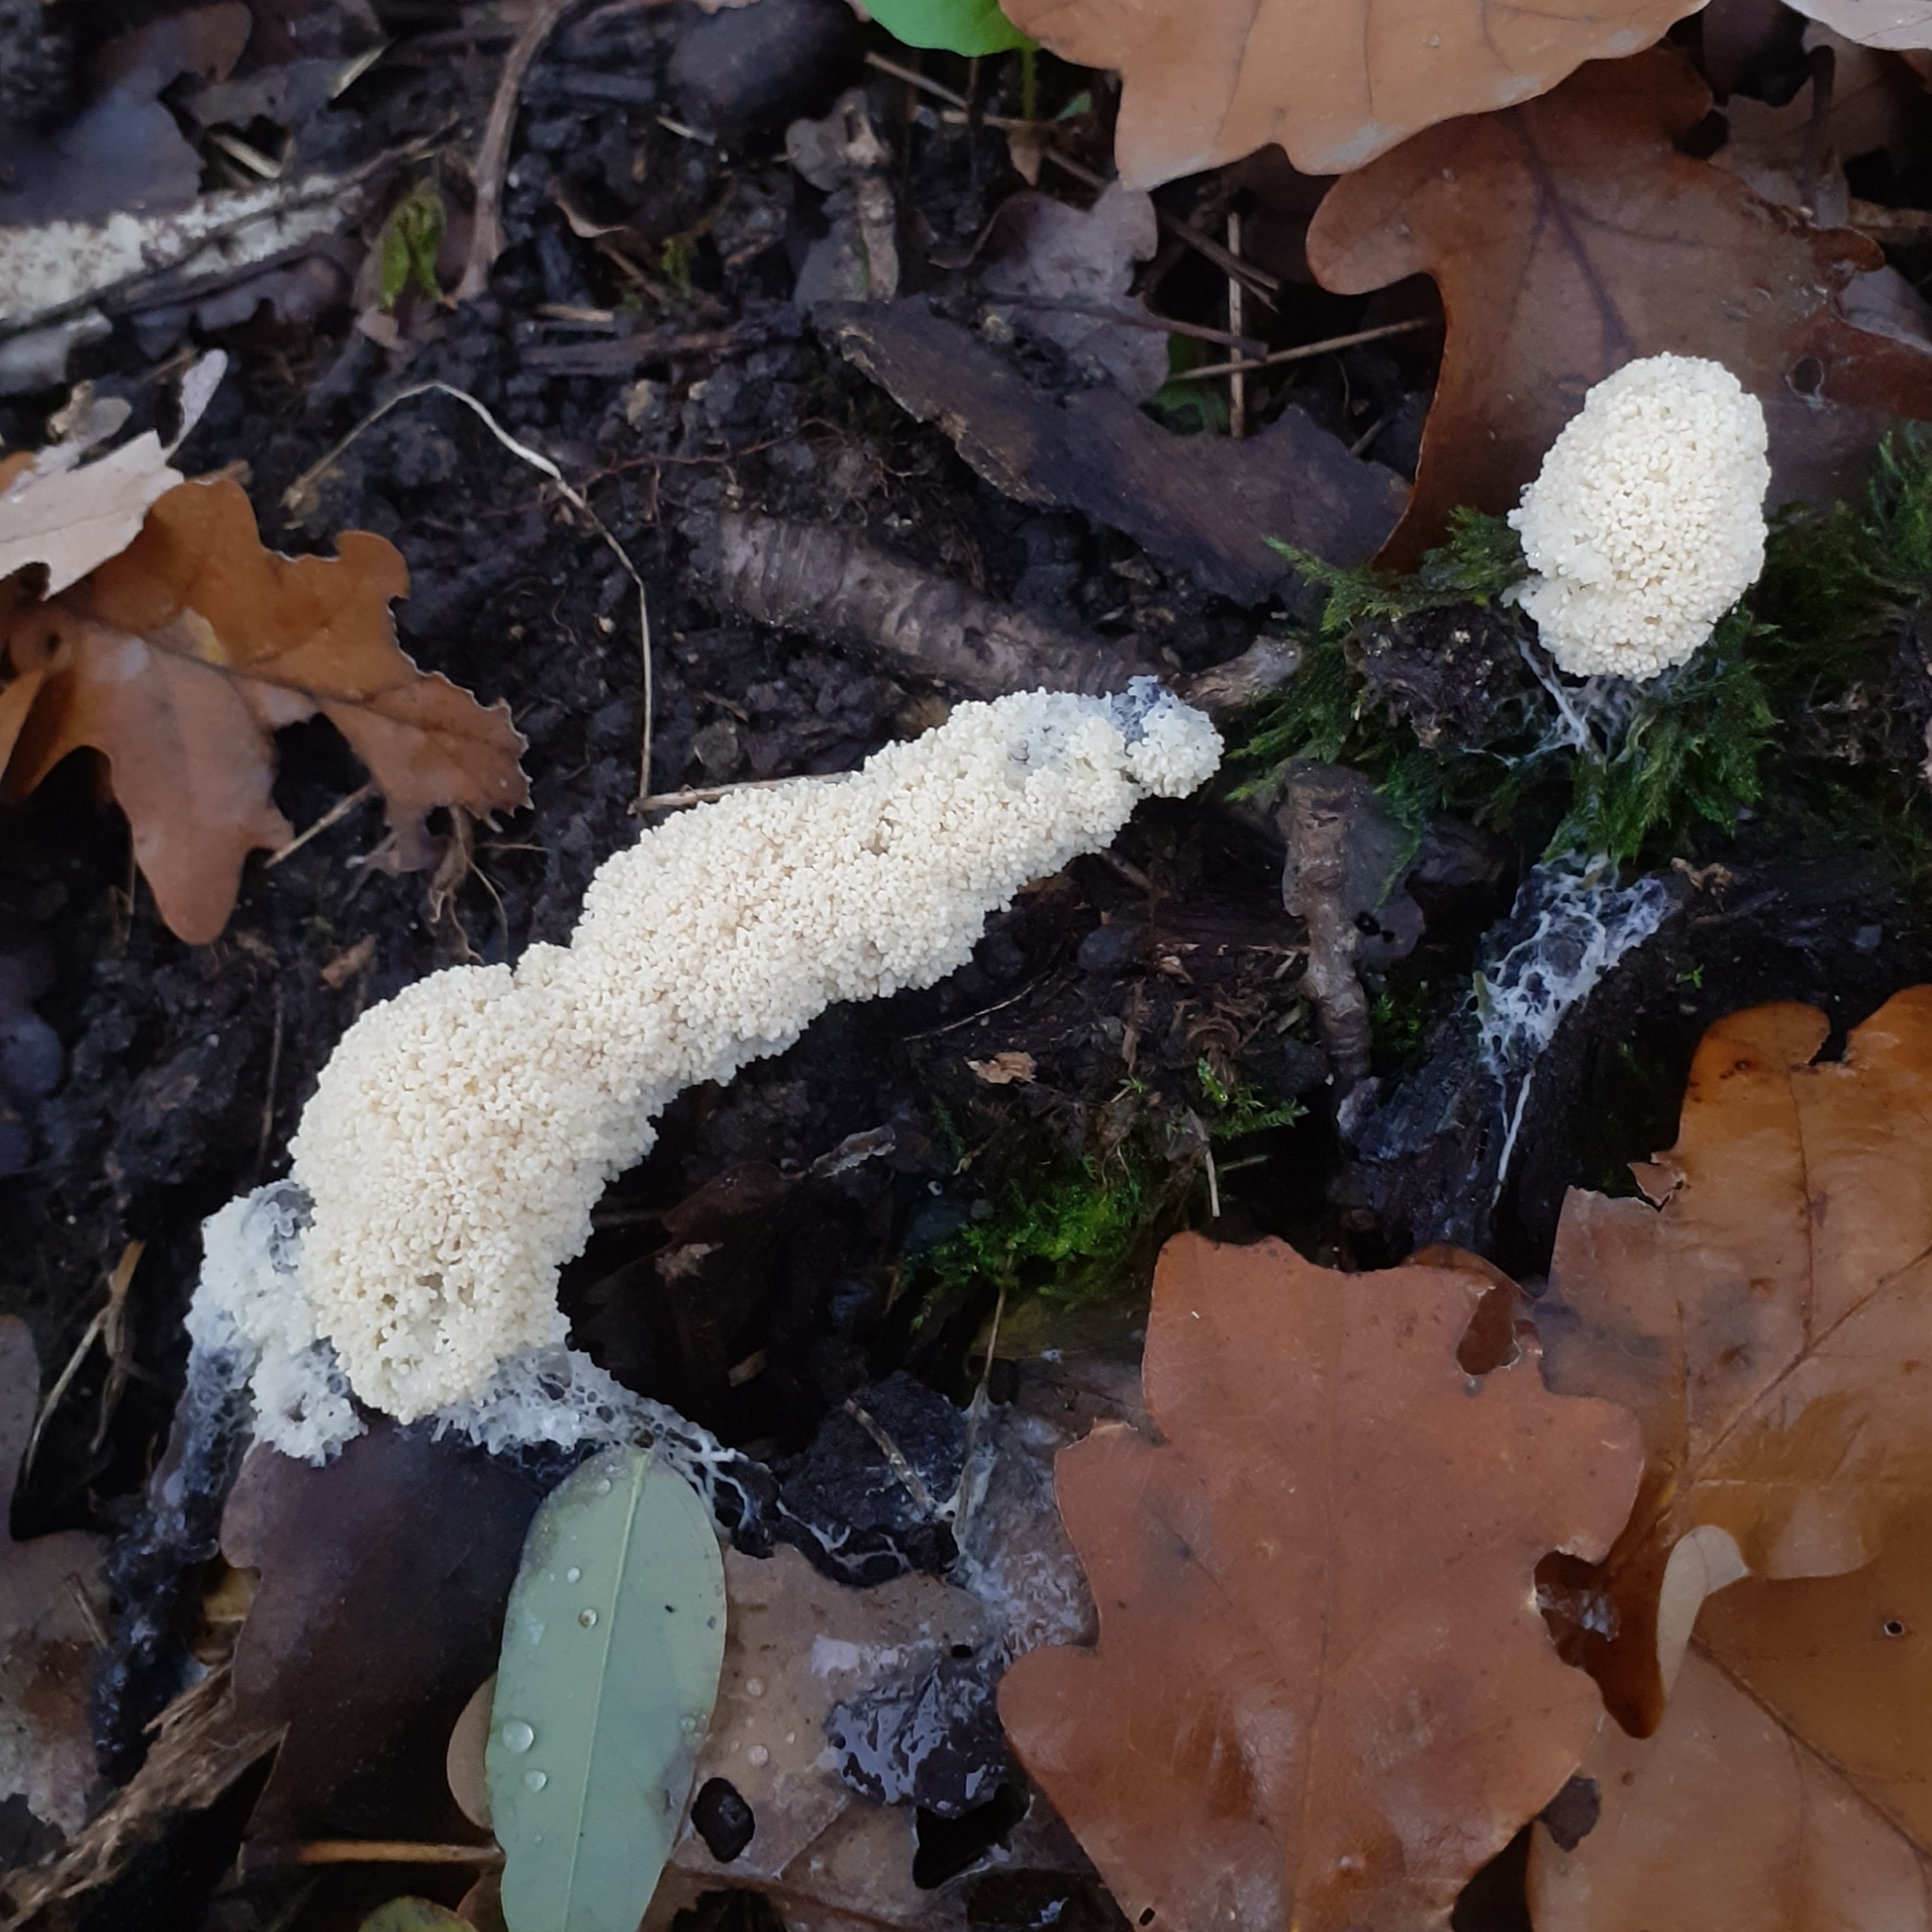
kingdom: Protozoa
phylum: Mycetozoa
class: Myxomycetes
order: Physarales
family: Physaraceae
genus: Didymium
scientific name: Didymium
